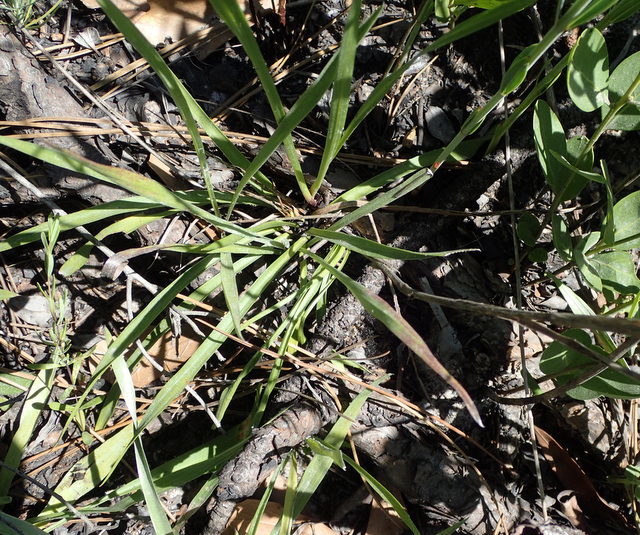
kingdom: Plantae
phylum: Tracheophyta
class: Magnoliopsida
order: Myrtales
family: Melastomataceae
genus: Rhexia
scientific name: Rhexia alifanus
